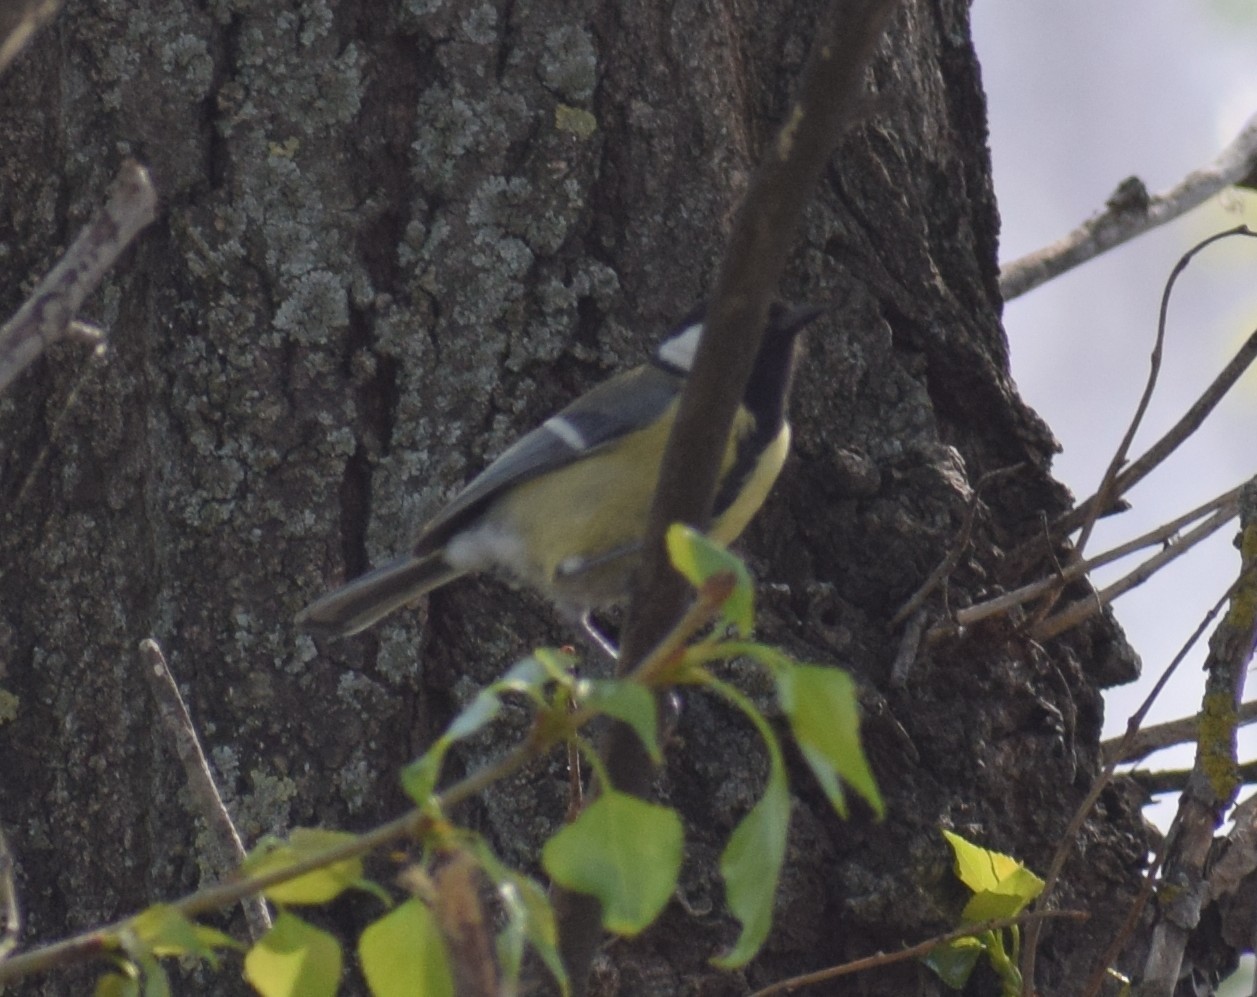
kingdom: Animalia
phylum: Chordata
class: Aves
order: Passeriformes
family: Paridae
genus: Parus
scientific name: Parus major
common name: Great tit
